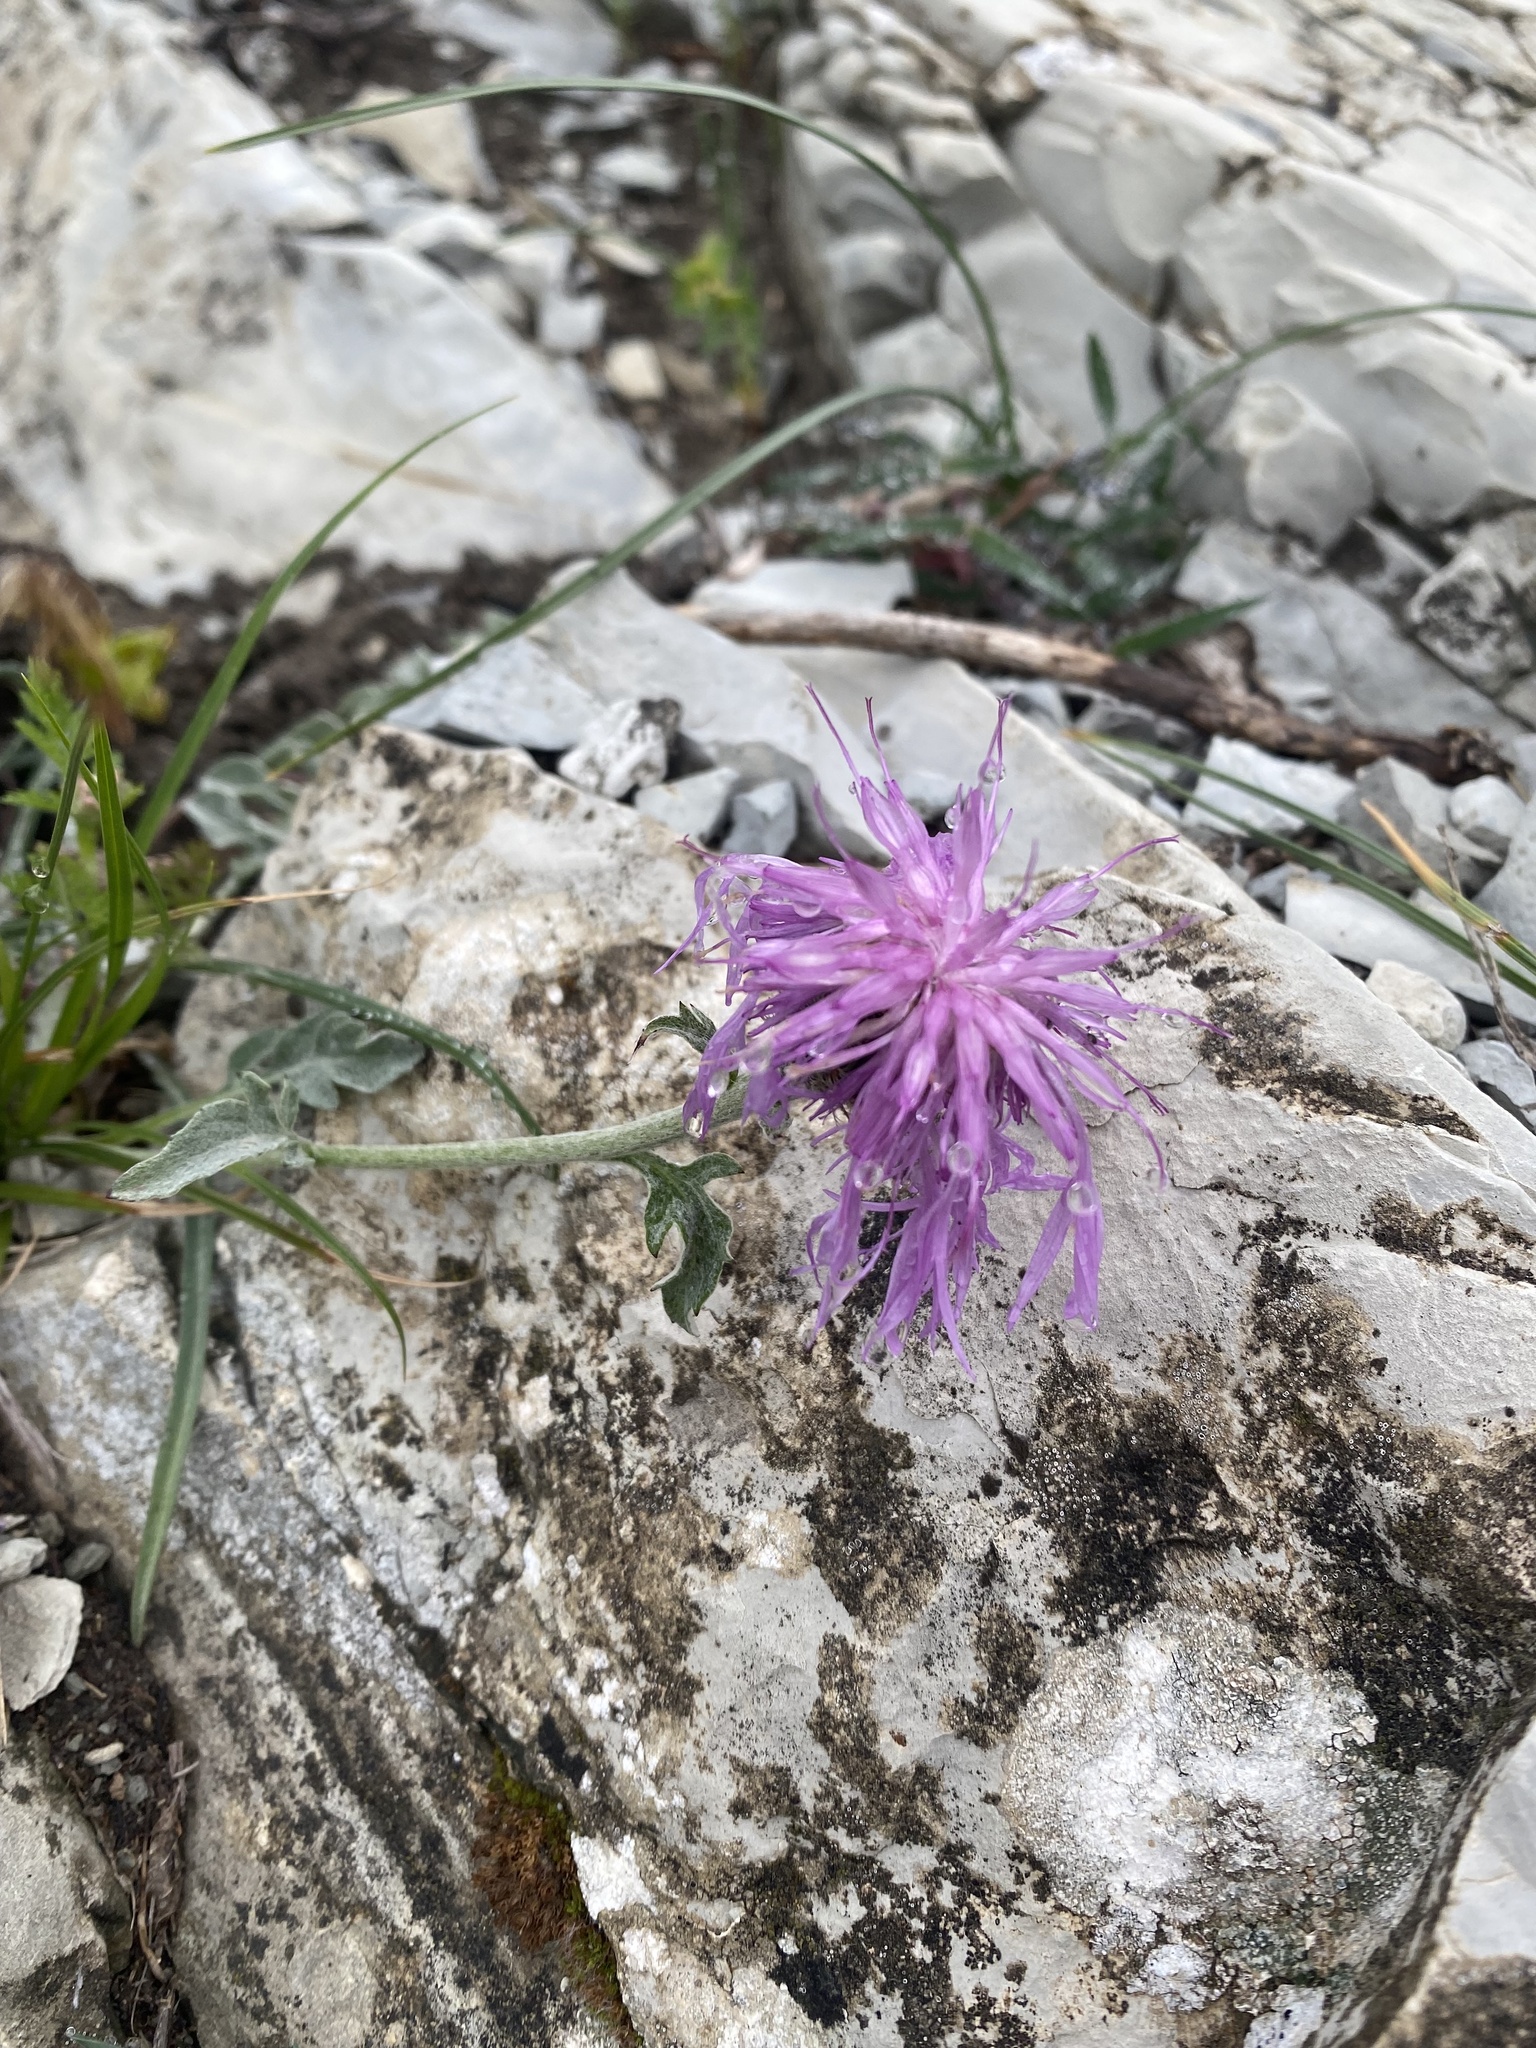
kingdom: Plantae
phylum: Tracheophyta
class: Magnoliopsida
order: Asterales
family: Asteraceae
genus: Psephellus
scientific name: Psephellus declinatus
